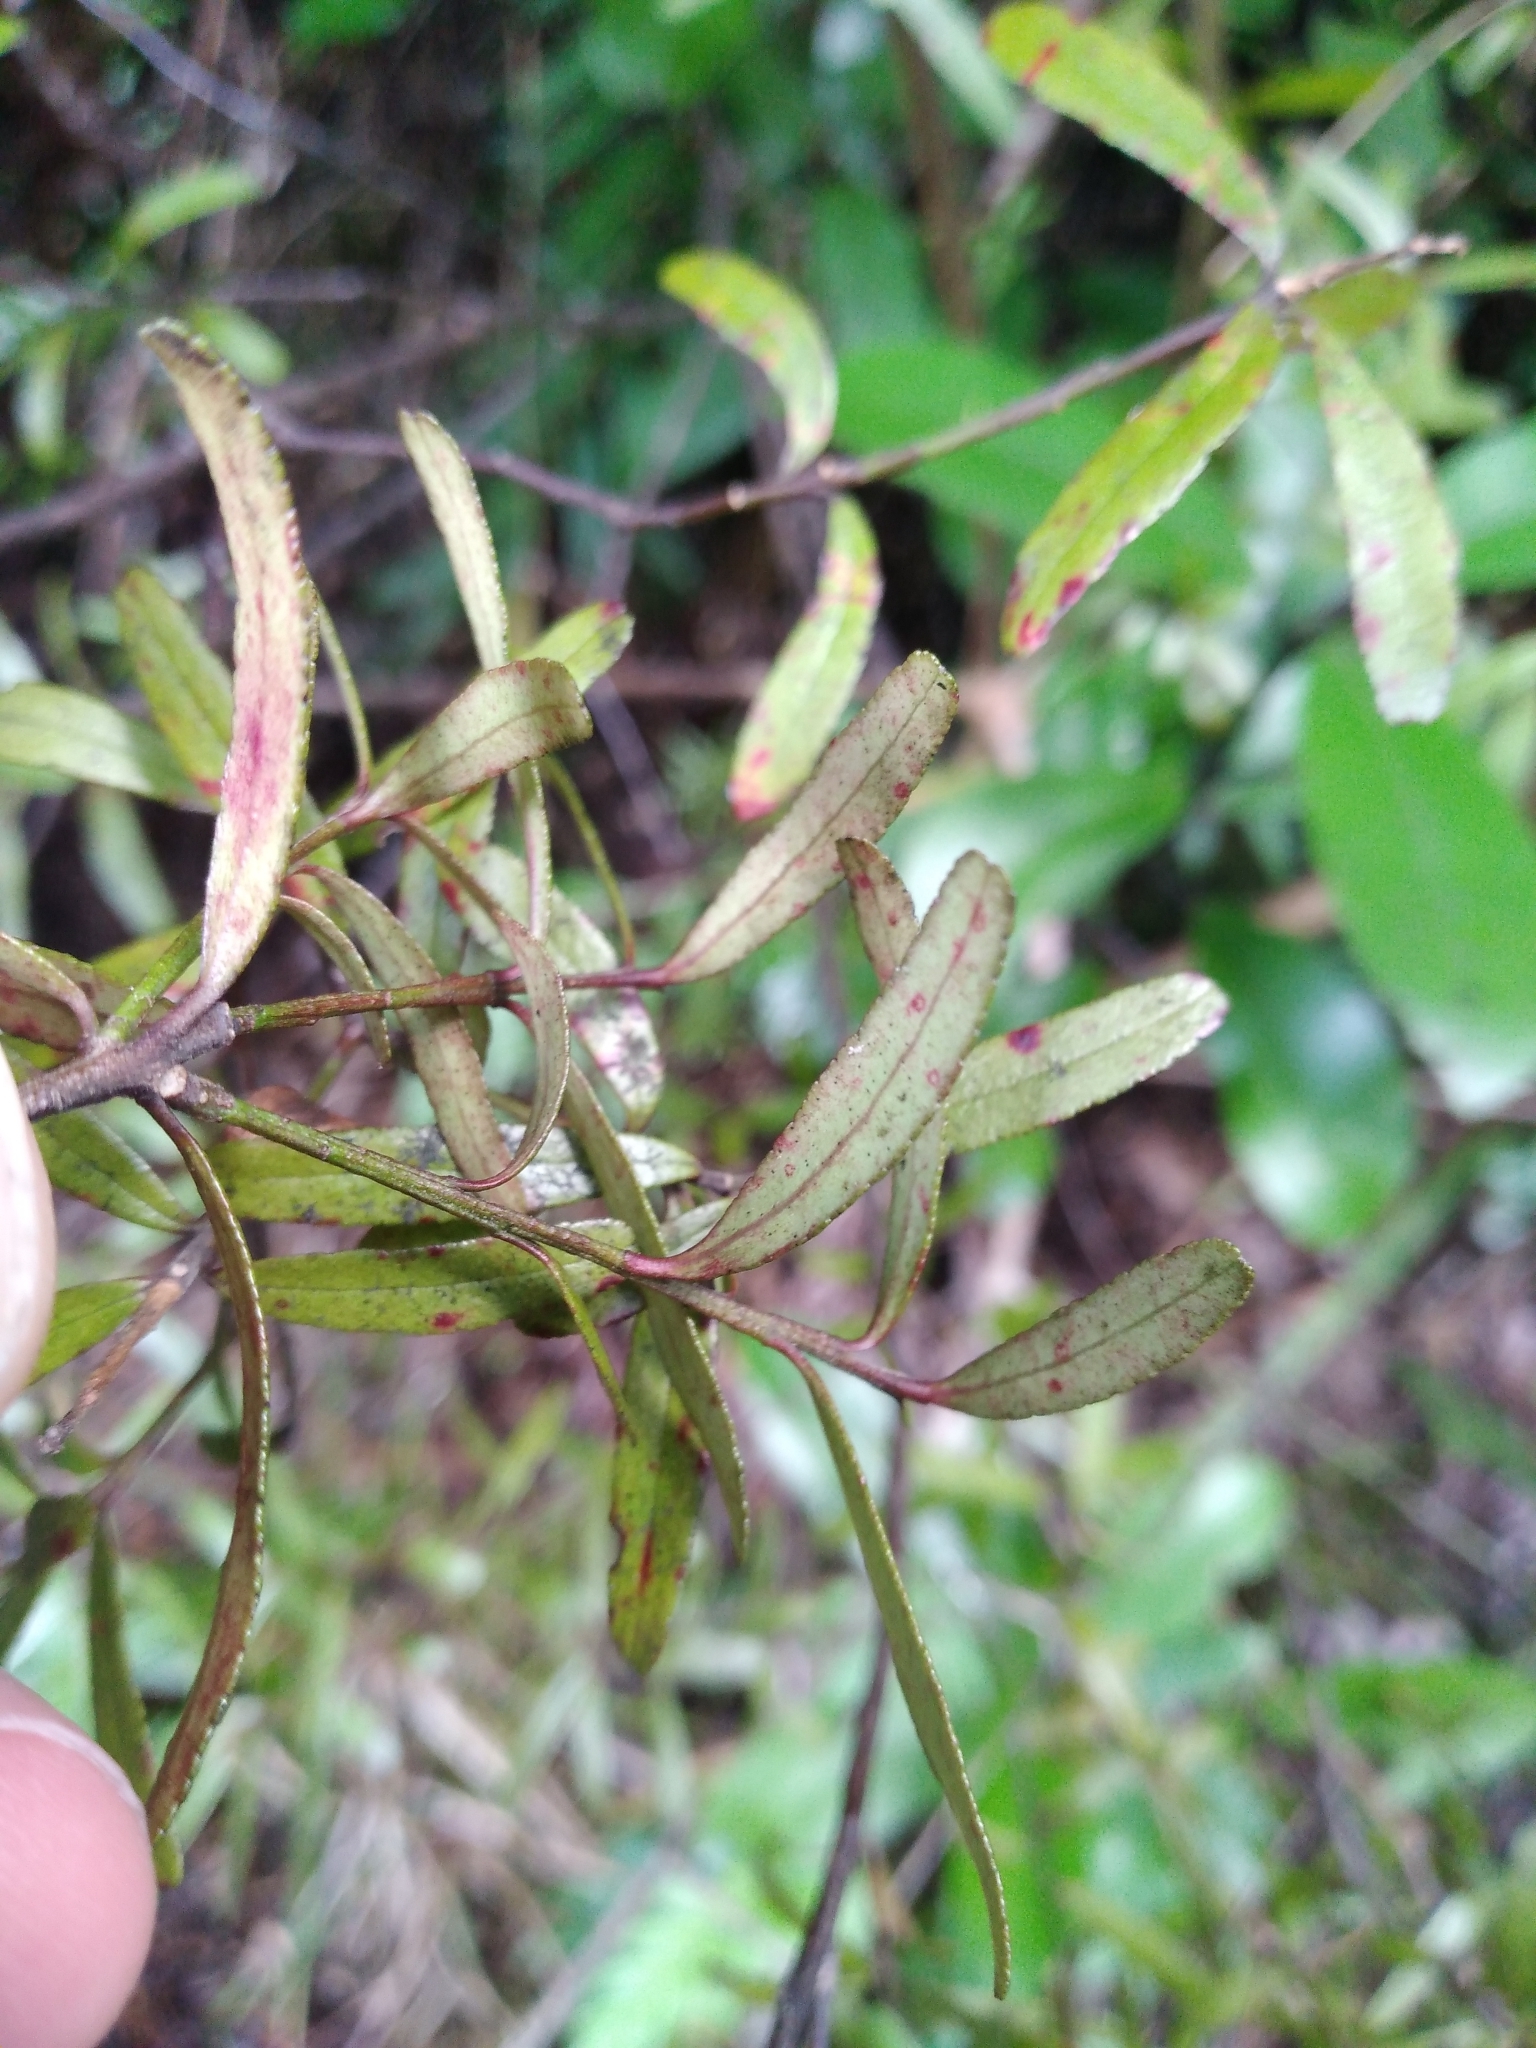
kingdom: Plantae
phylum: Tracheophyta
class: Magnoliopsida
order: Sapindales
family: Rutaceae
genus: Leionema
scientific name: Leionema nudum
